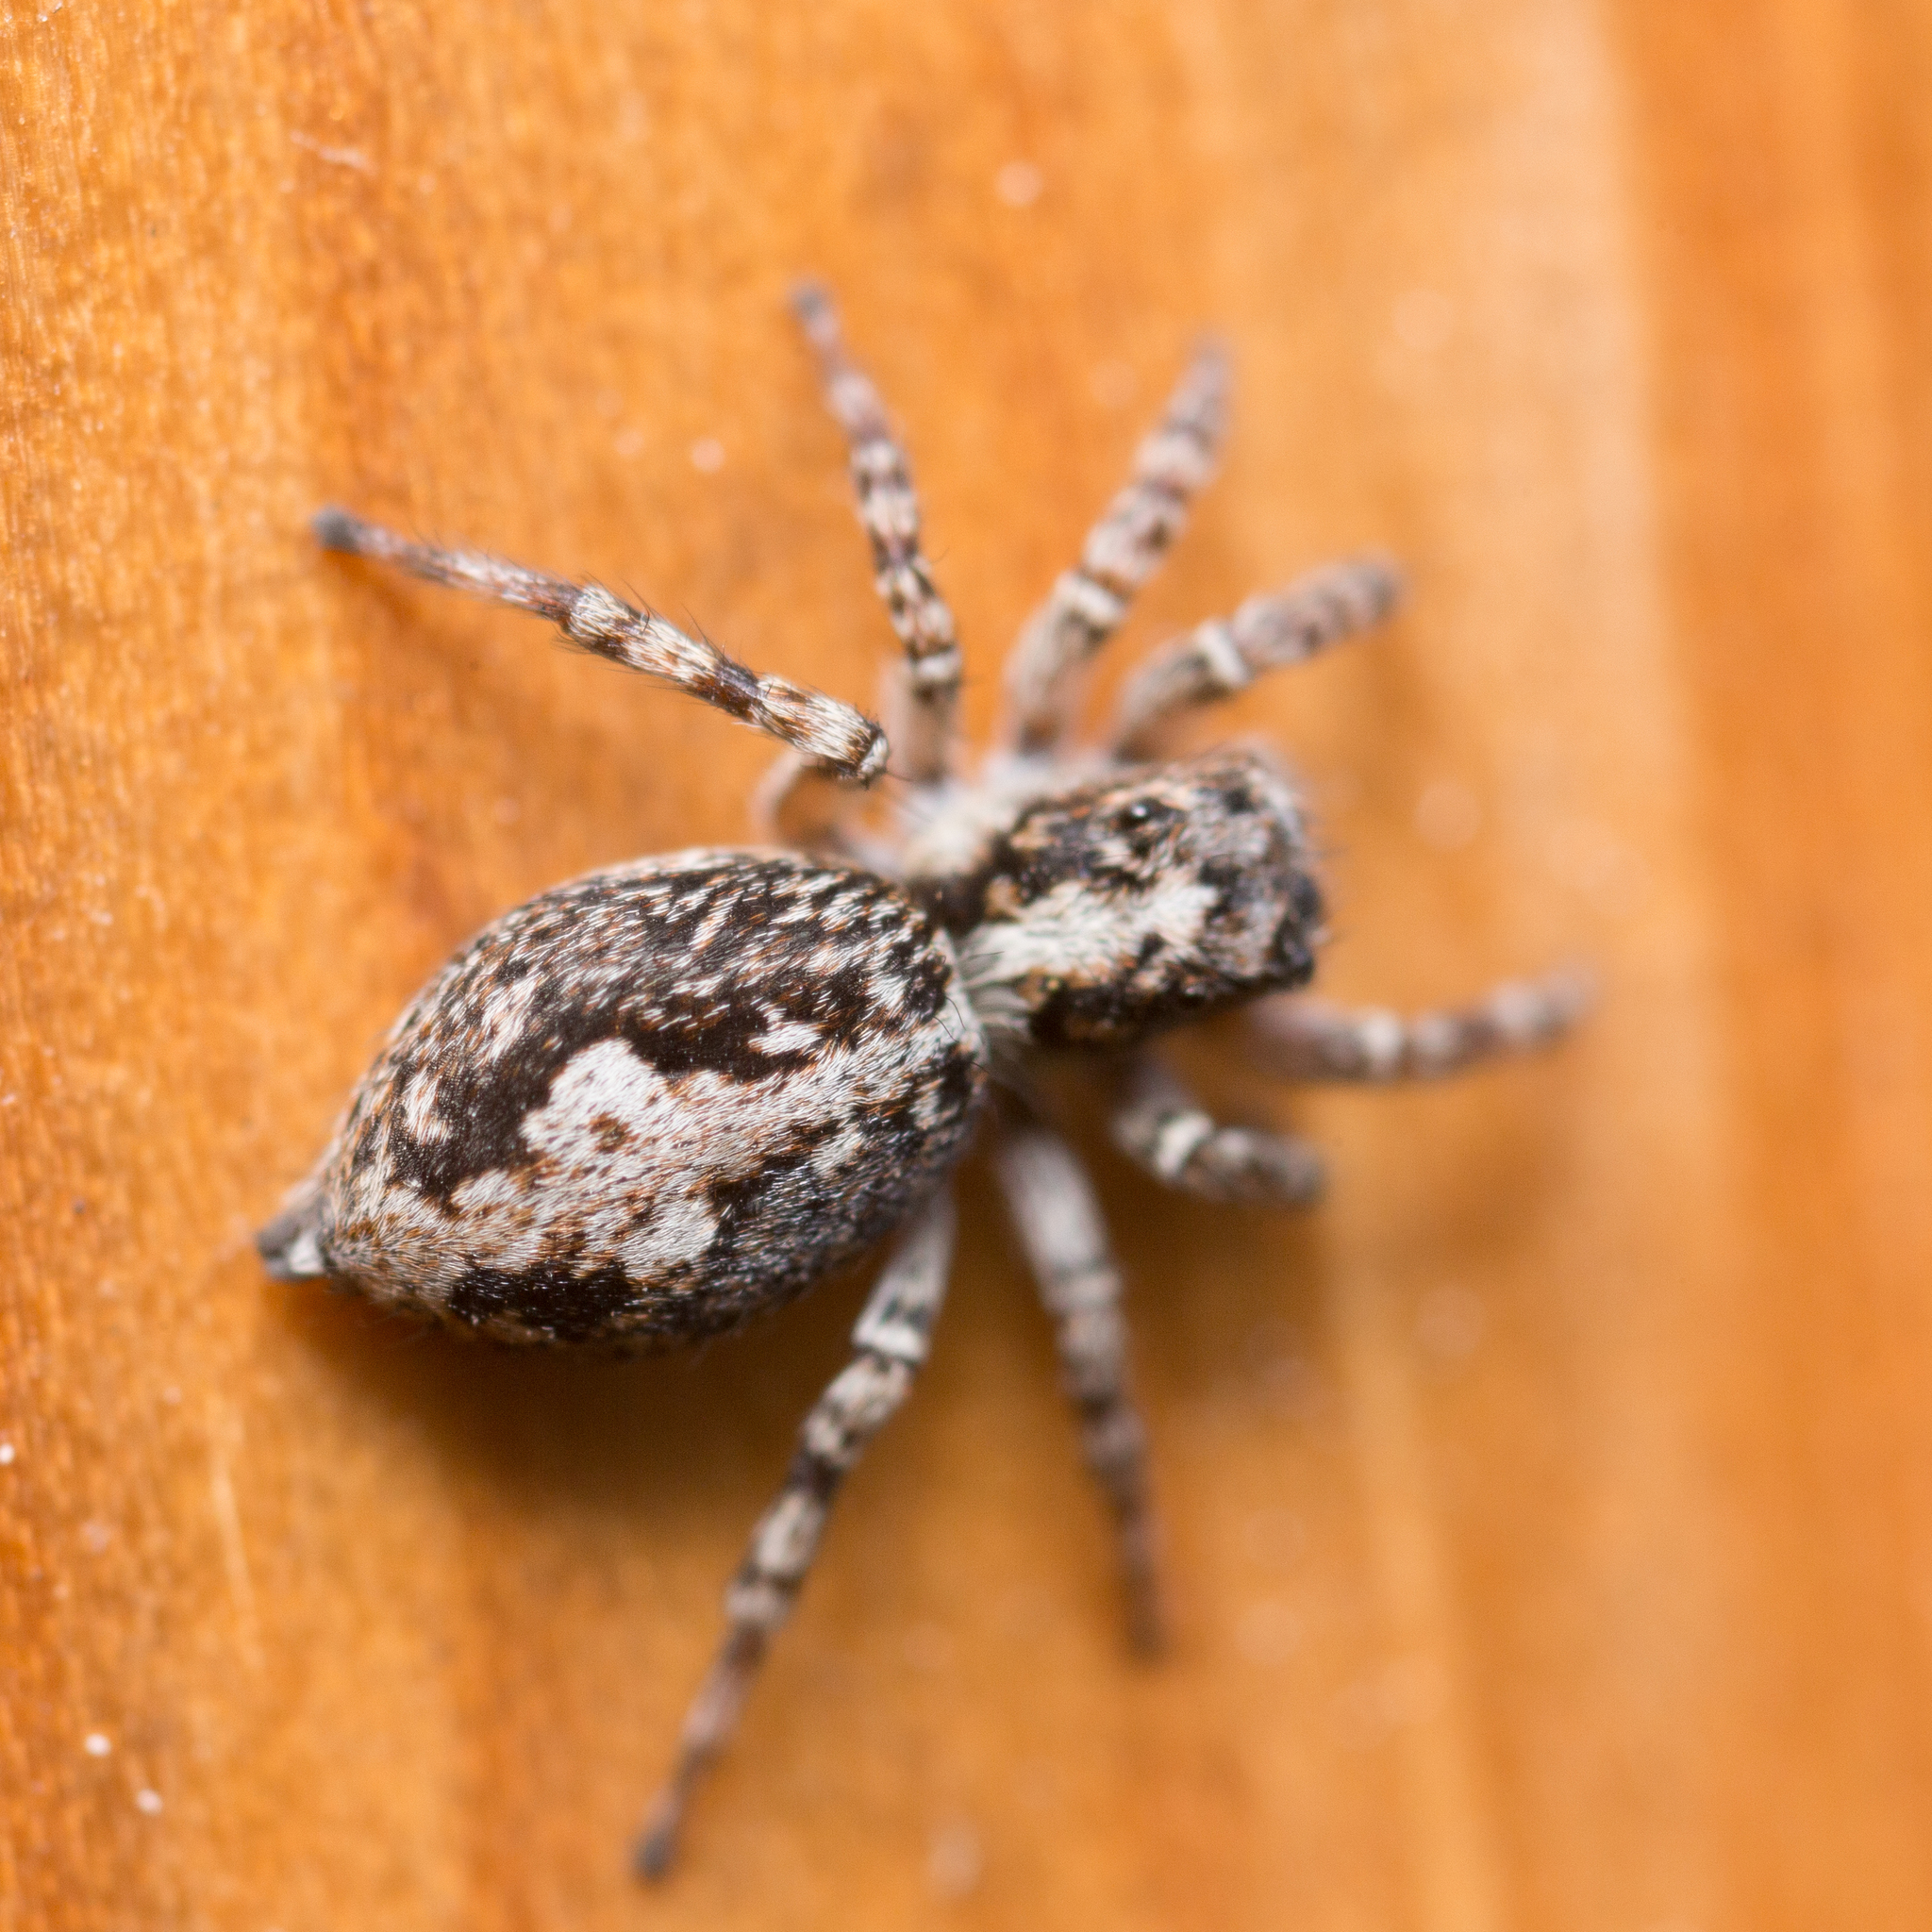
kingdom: Animalia
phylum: Arthropoda
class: Arachnida
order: Araneae
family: Salticidae
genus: Attulus
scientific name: Attulus terebratus
